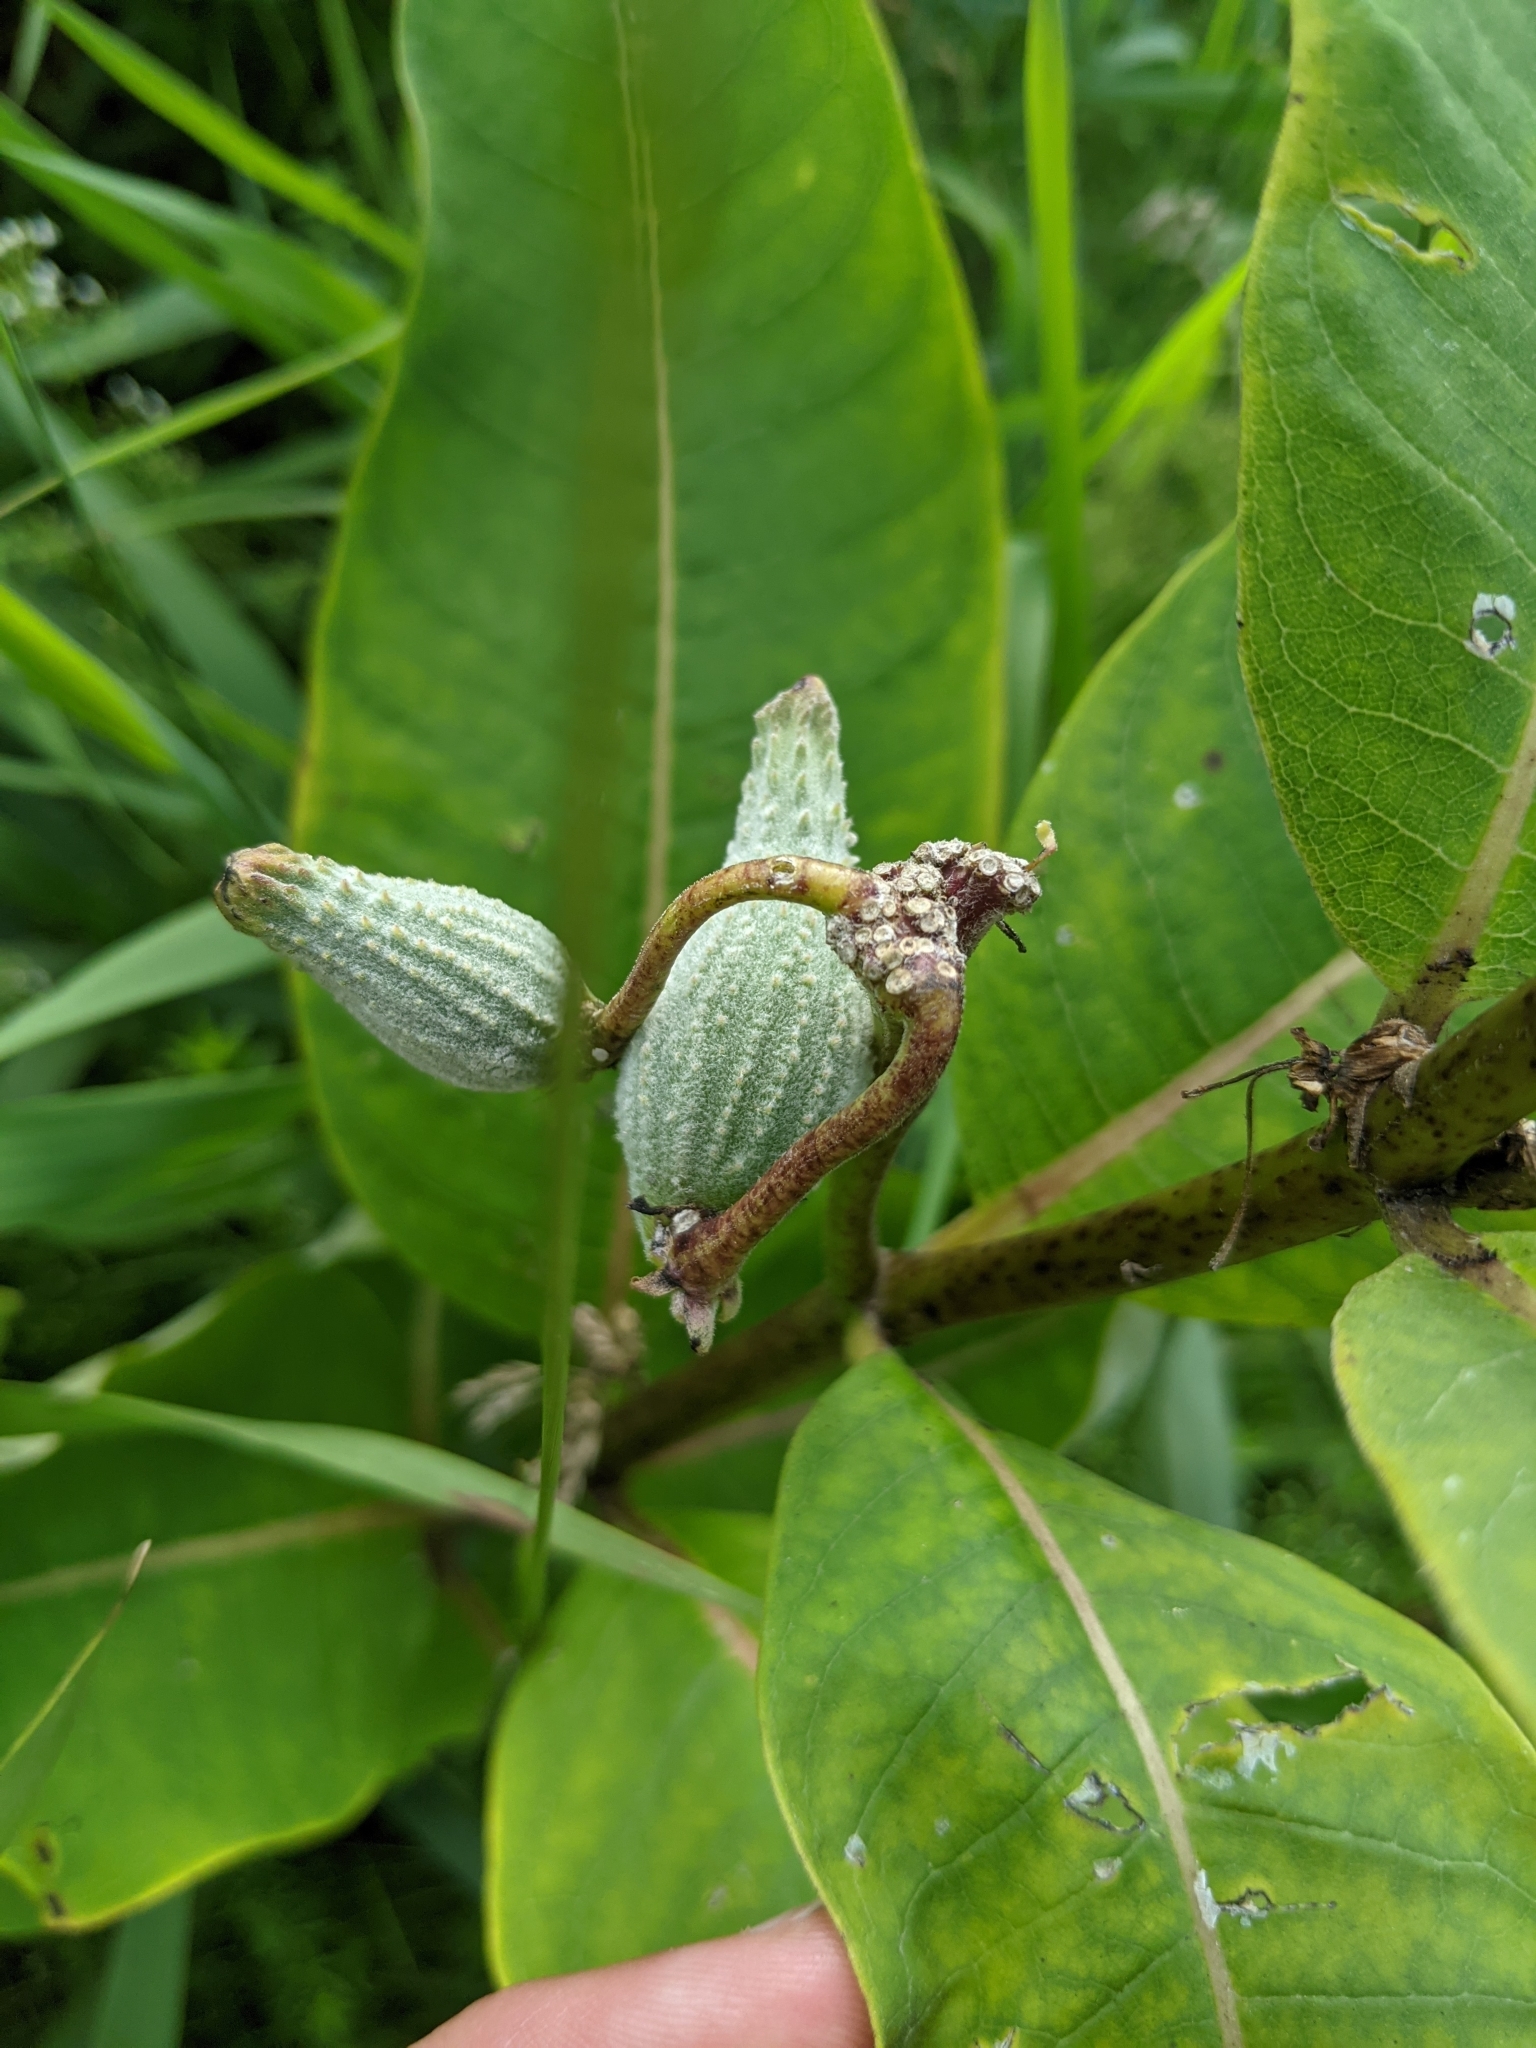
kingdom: Plantae
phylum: Tracheophyta
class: Magnoliopsida
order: Gentianales
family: Apocynaceae
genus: Asclepias
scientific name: Asclepias syriaca
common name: Common milkweed
